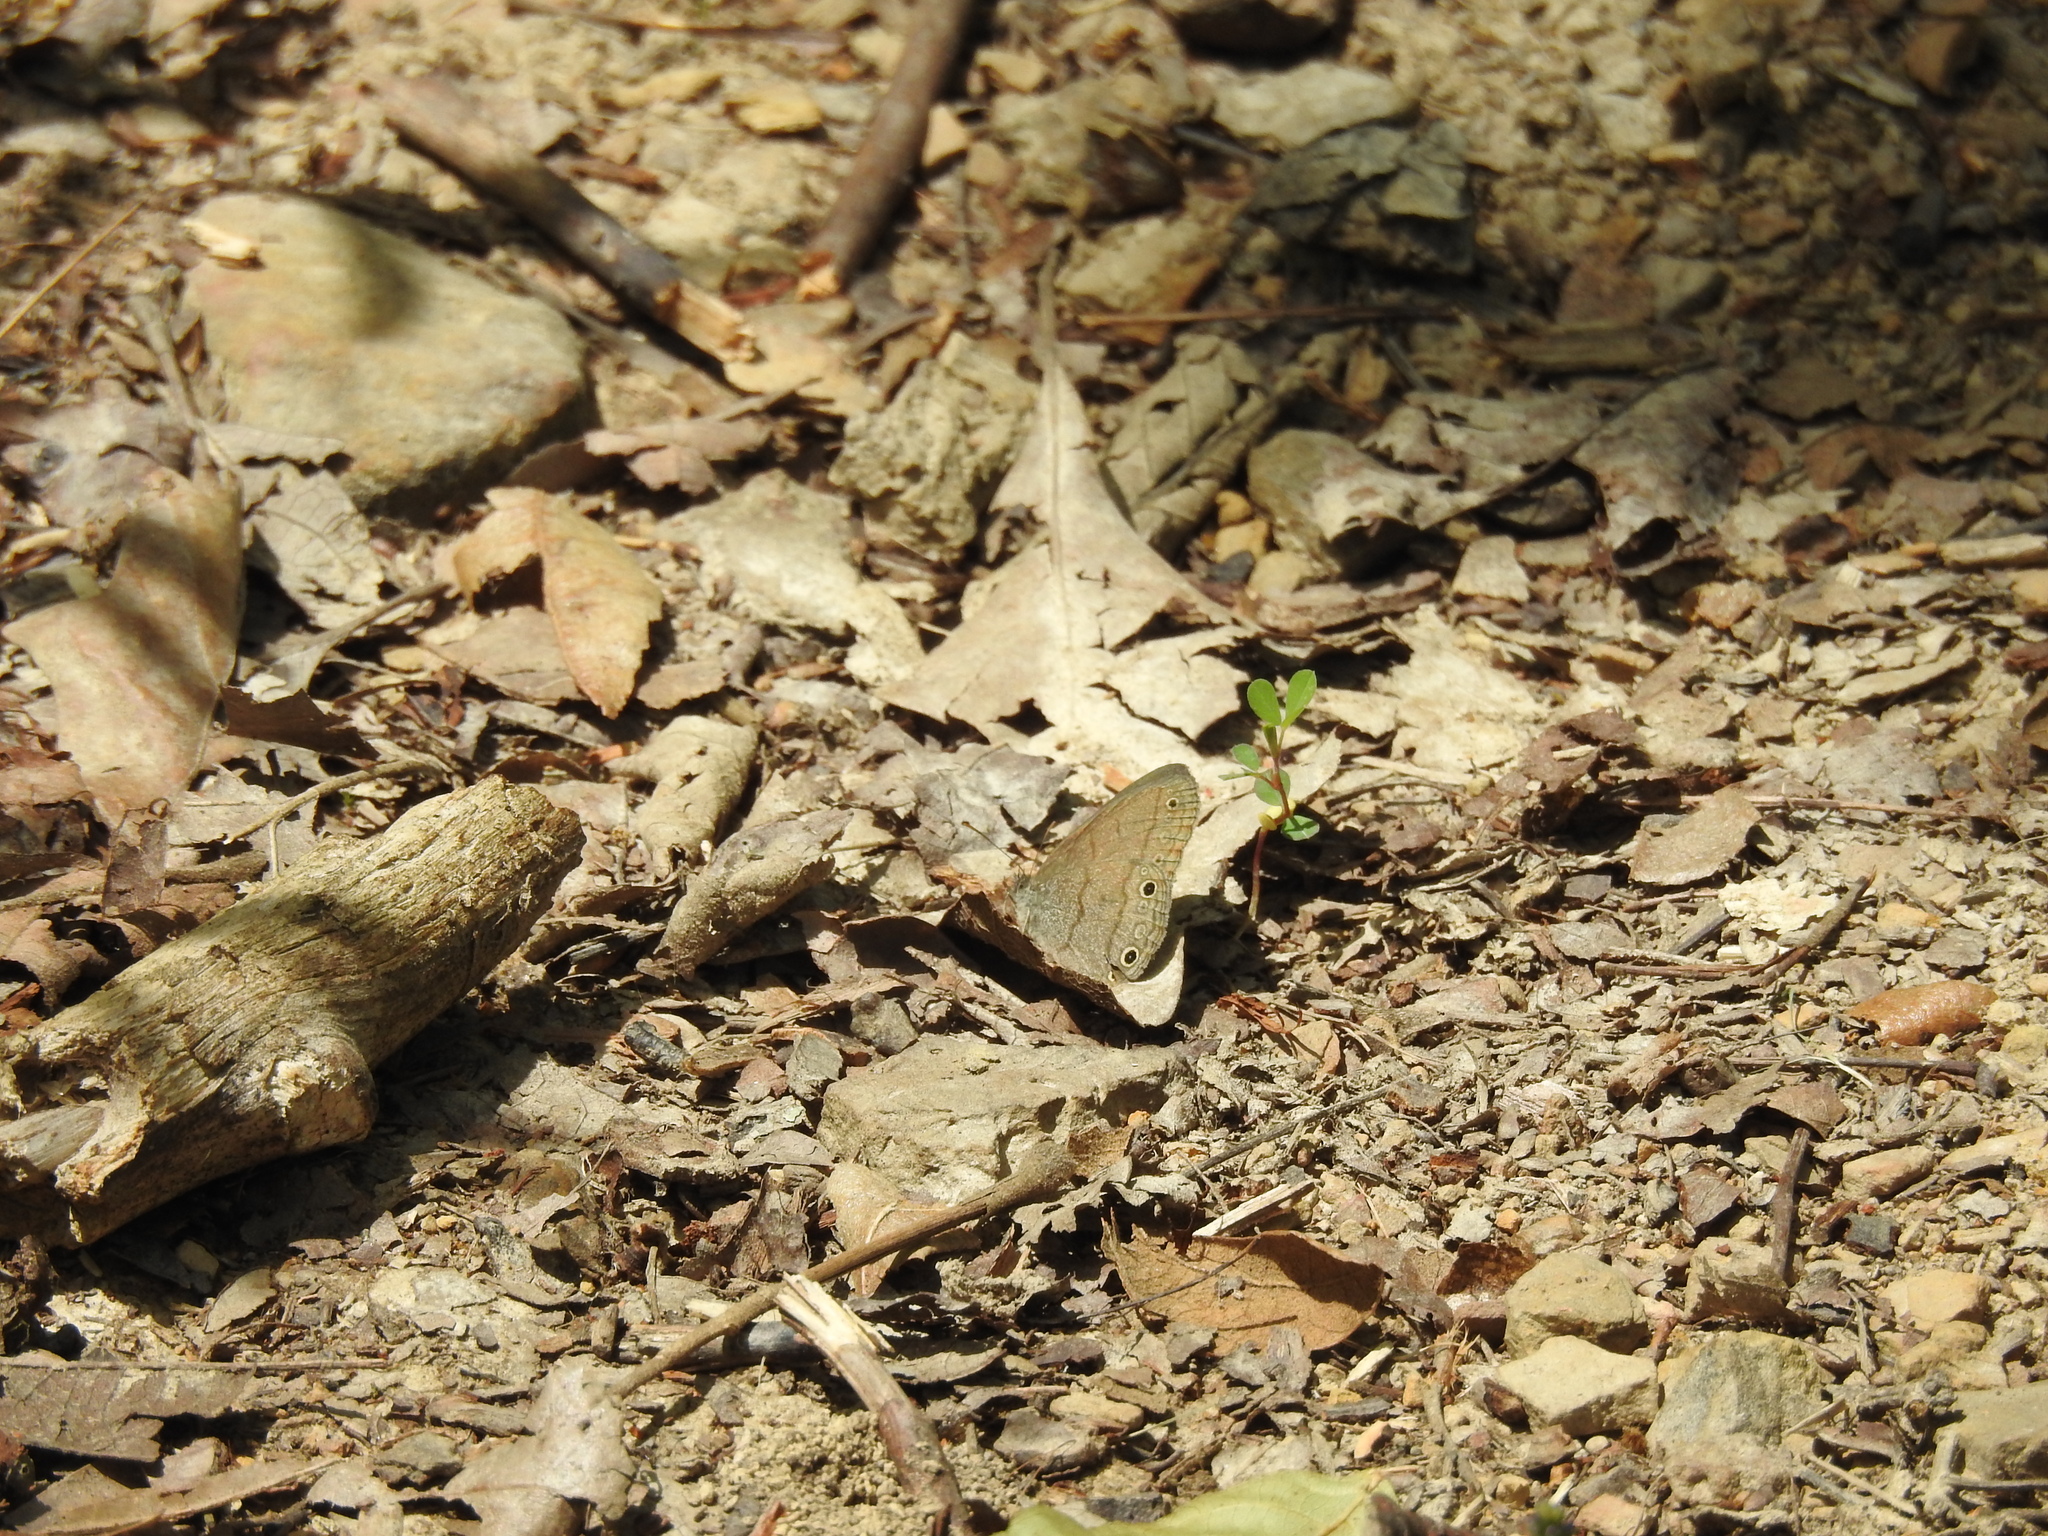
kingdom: Animalia
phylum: Arthropoda
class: Insecta
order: Lepidoptera
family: Nymphalidae
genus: Hermeuptychia
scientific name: Hermeuptychia hermes
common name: Hermes satyr
